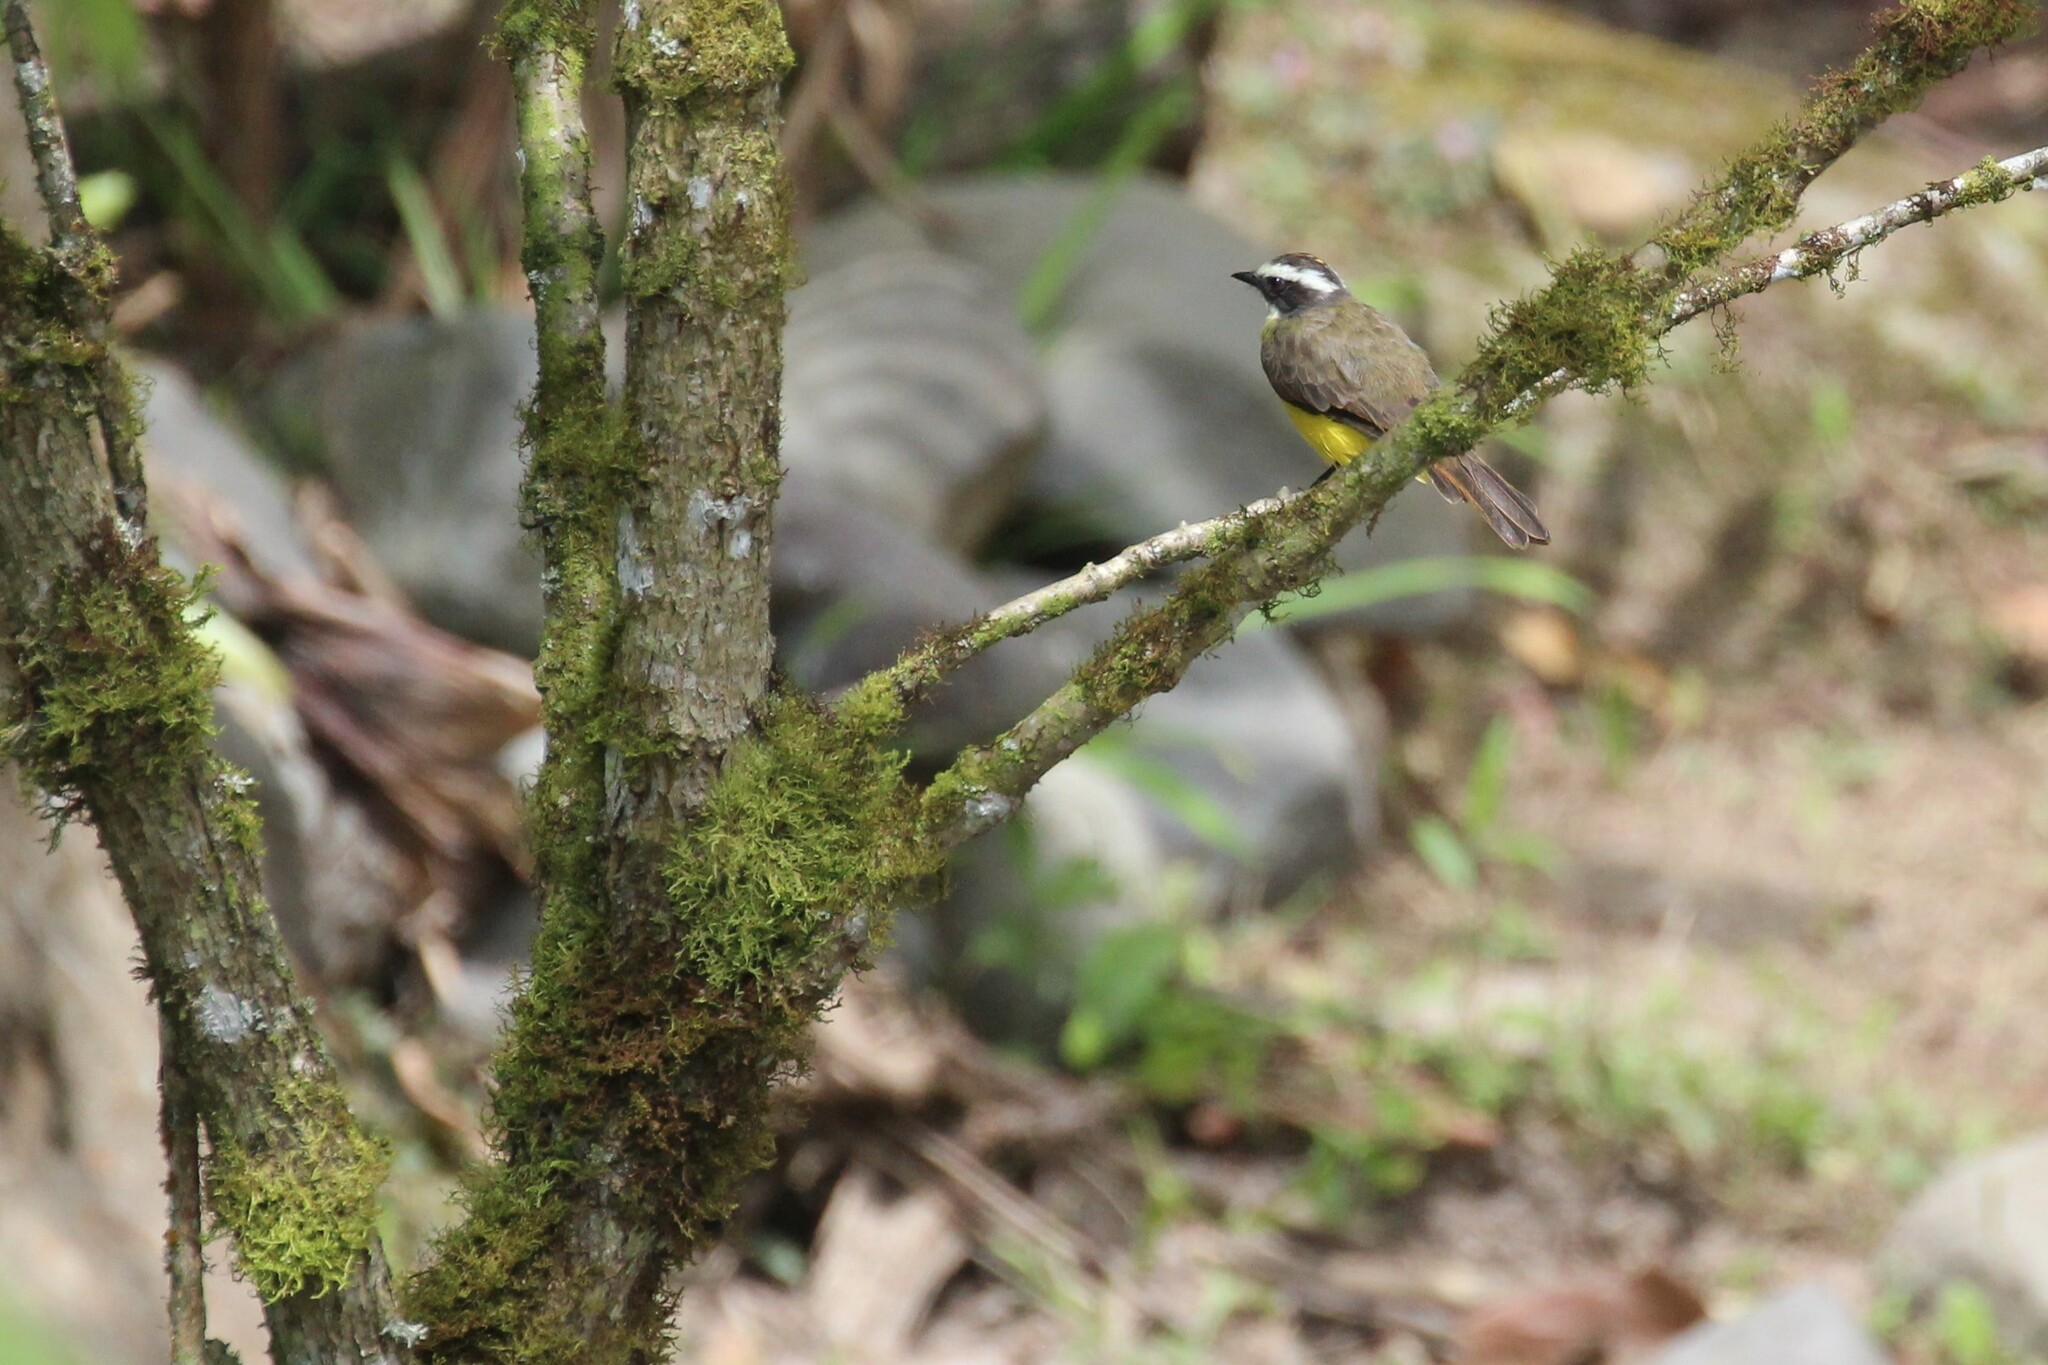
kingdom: Animalia
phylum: Chordata
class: Aves
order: Passeriformes
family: Tyrannidae
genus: Myiozetetes
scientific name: Myiozetetes cayanensis
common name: Rusty-margined flycatcher
